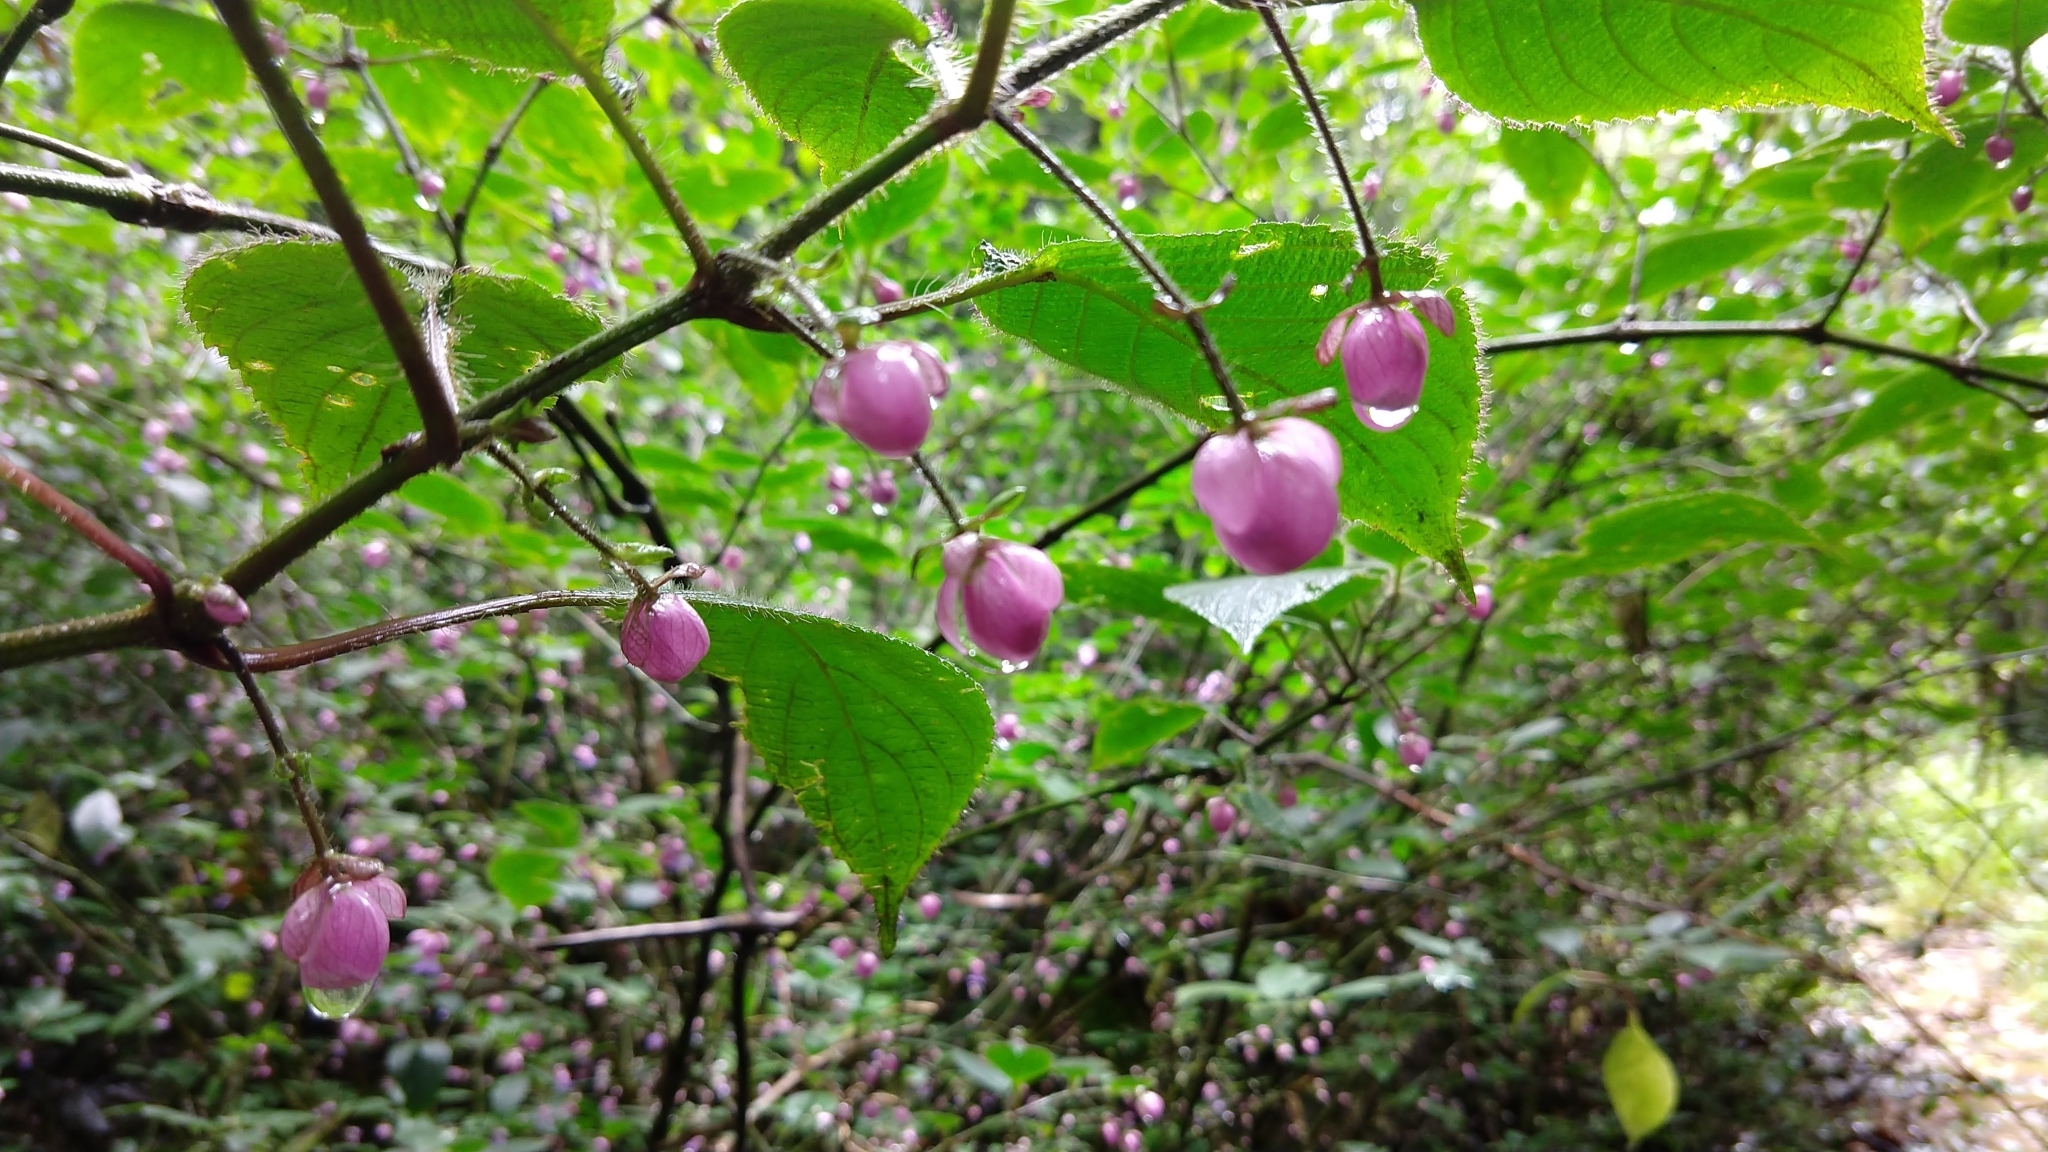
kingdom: Plantae
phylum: Tracheophyta
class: Magnoliopsida
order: Lamiales
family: Acanthaceae
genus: Strobilanthes
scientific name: Strobilanthes heyneana
